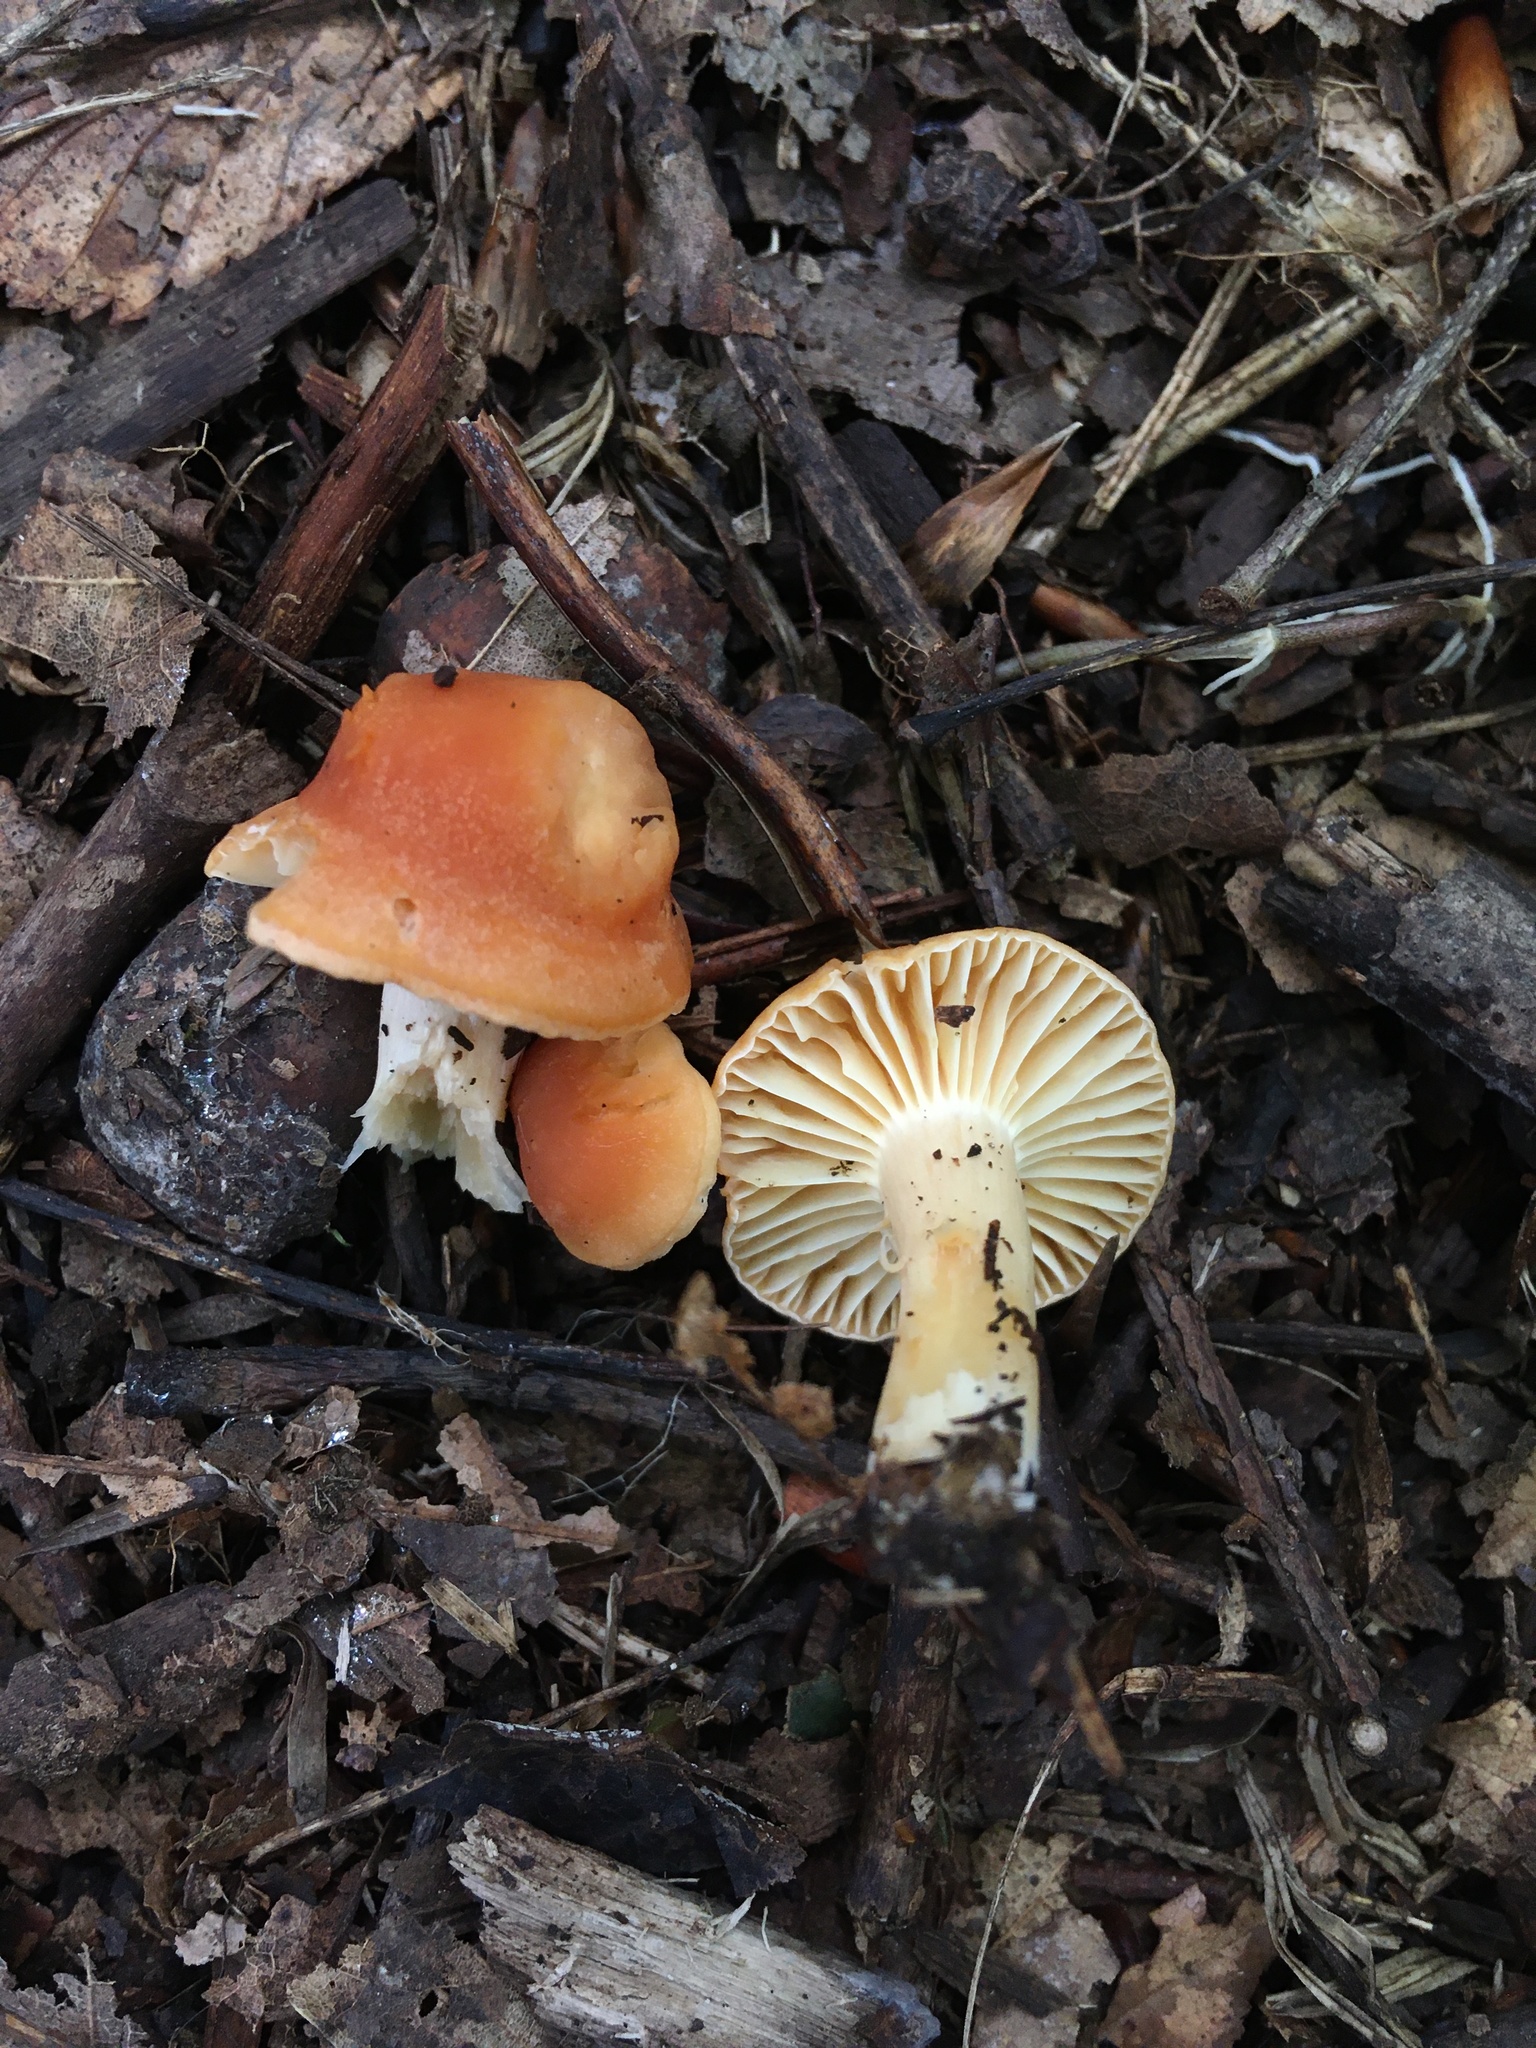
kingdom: Fungi
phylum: Basidiomycota
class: Agaricomycetes
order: Agaricales
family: Hygrophoraceae
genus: Cuphophyllus
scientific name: Cuphophyllus pratensis
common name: Meadow waxcap
